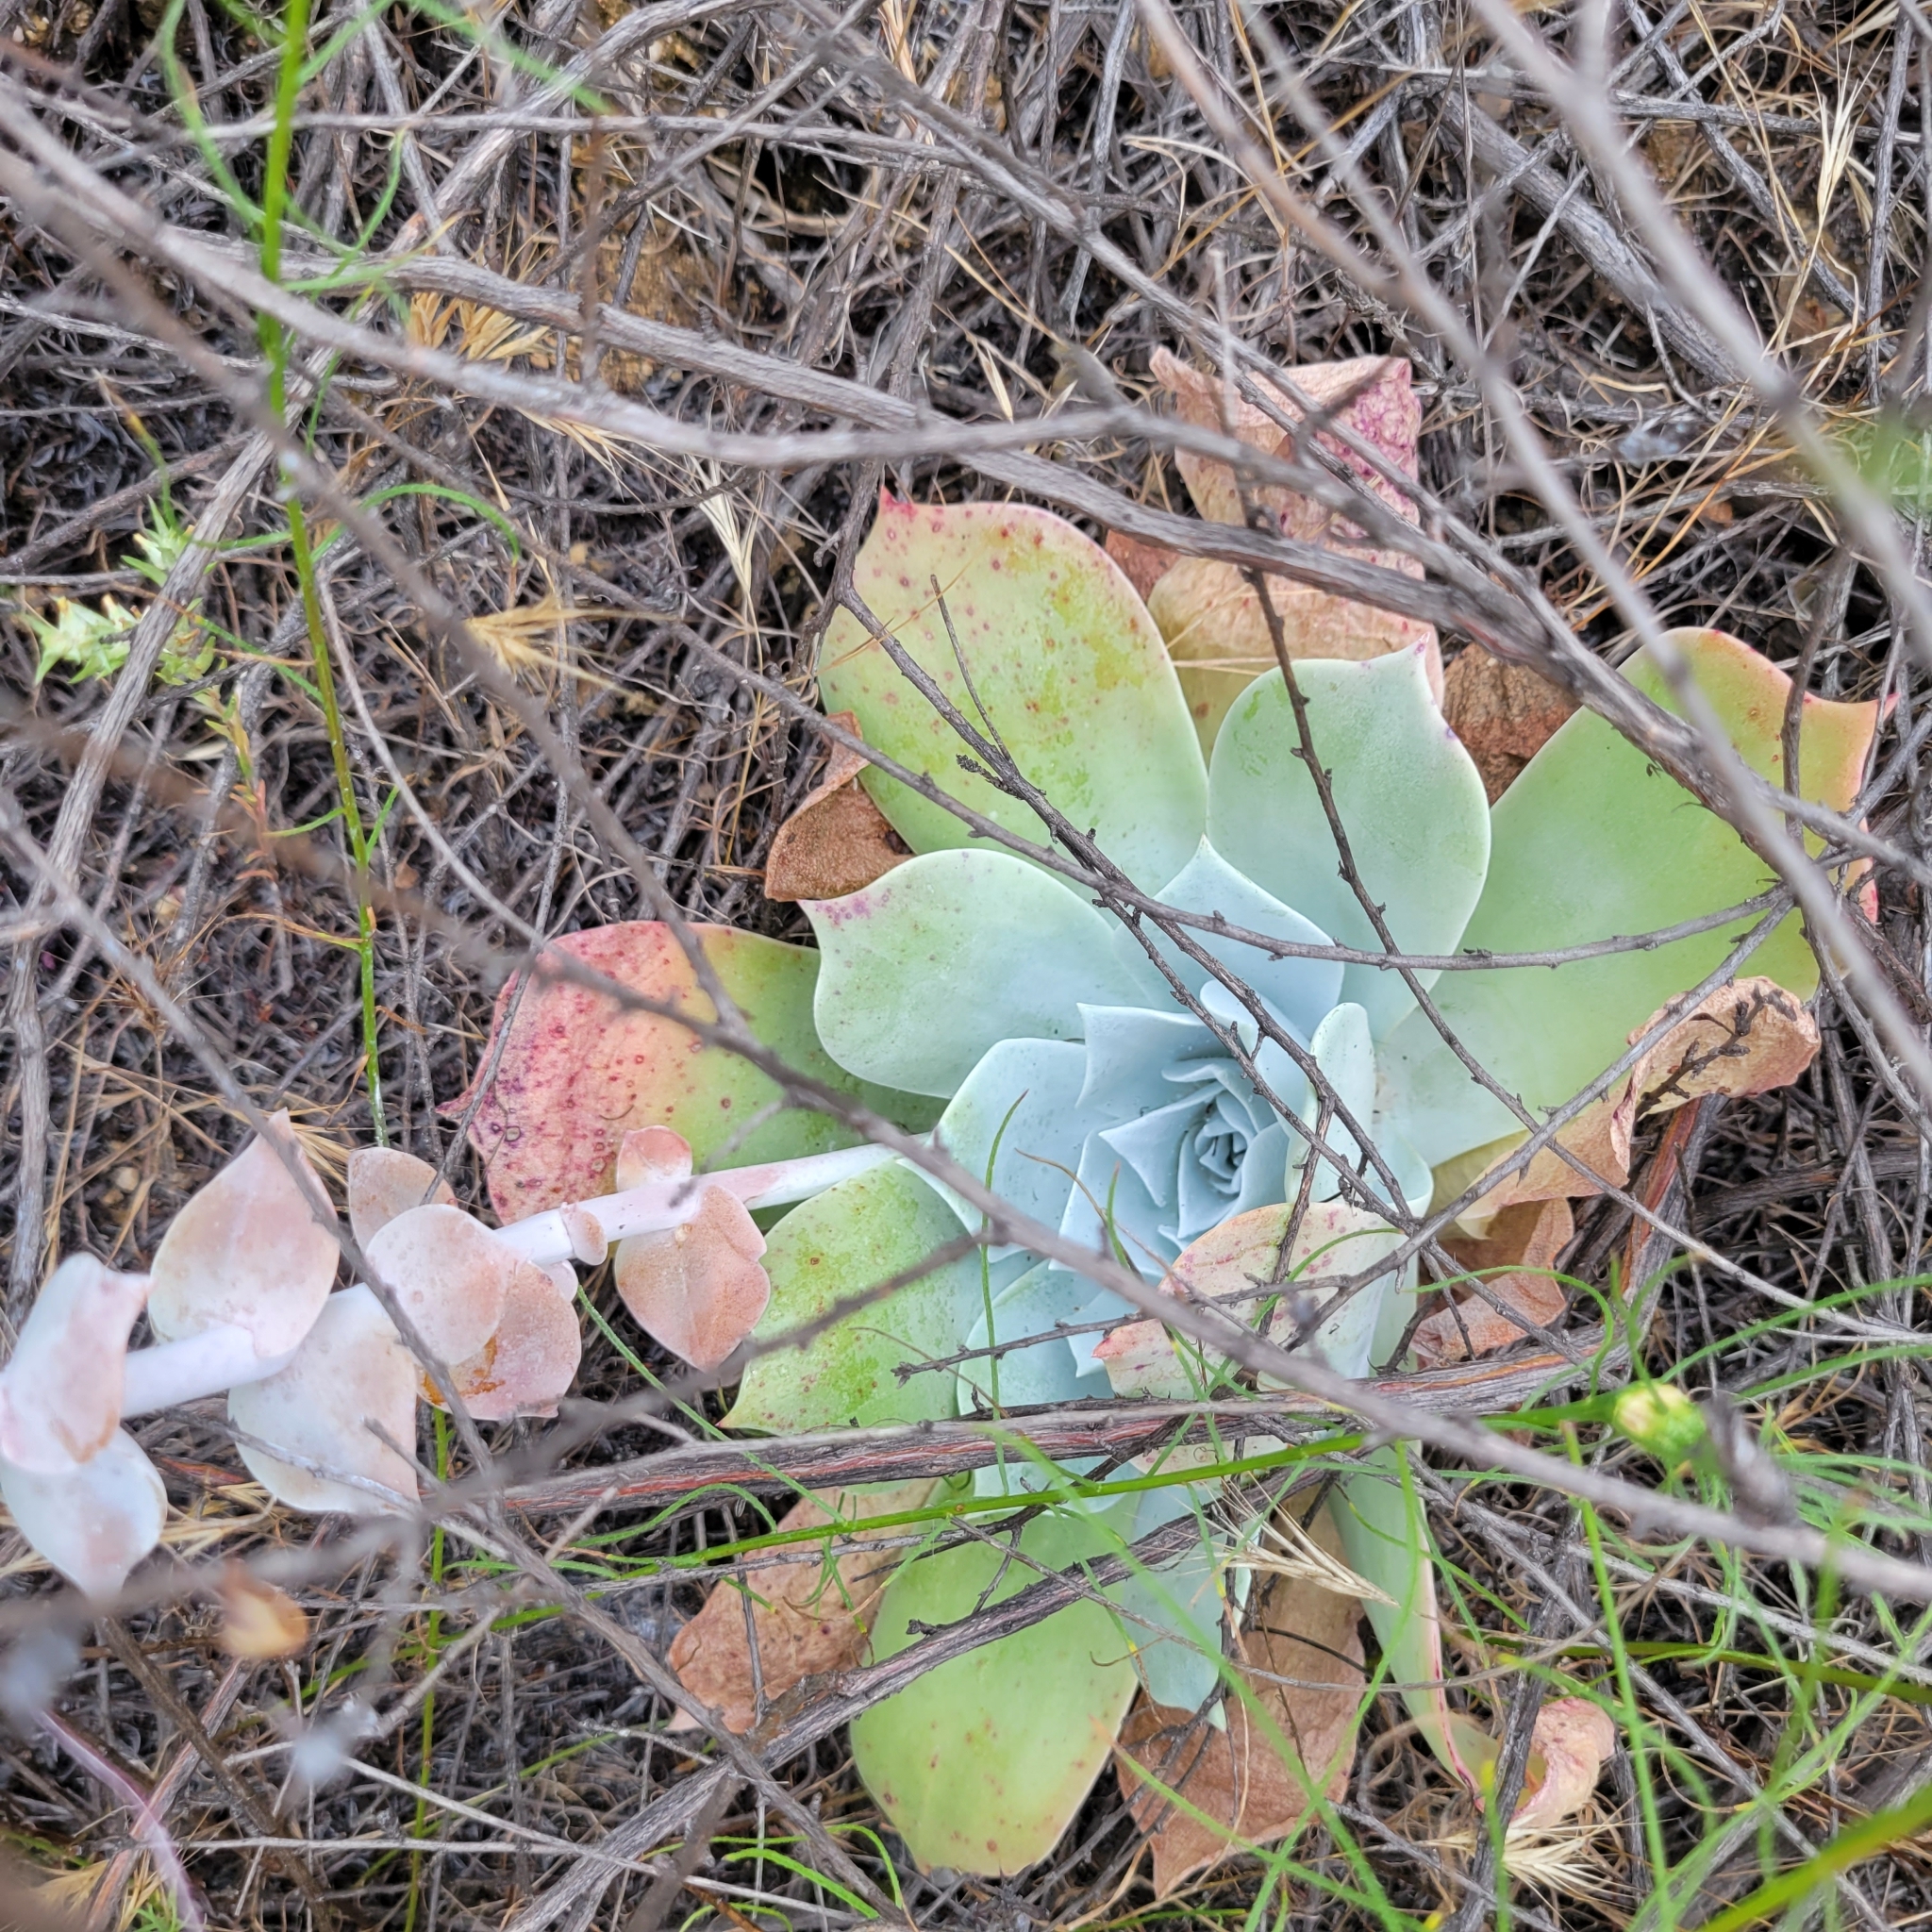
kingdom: Plantae
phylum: Tracheophyta
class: Magnoliopsida
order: Saxifragales
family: Crassulaceae
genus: Dudleya
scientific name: Dudleya pulverulenta
